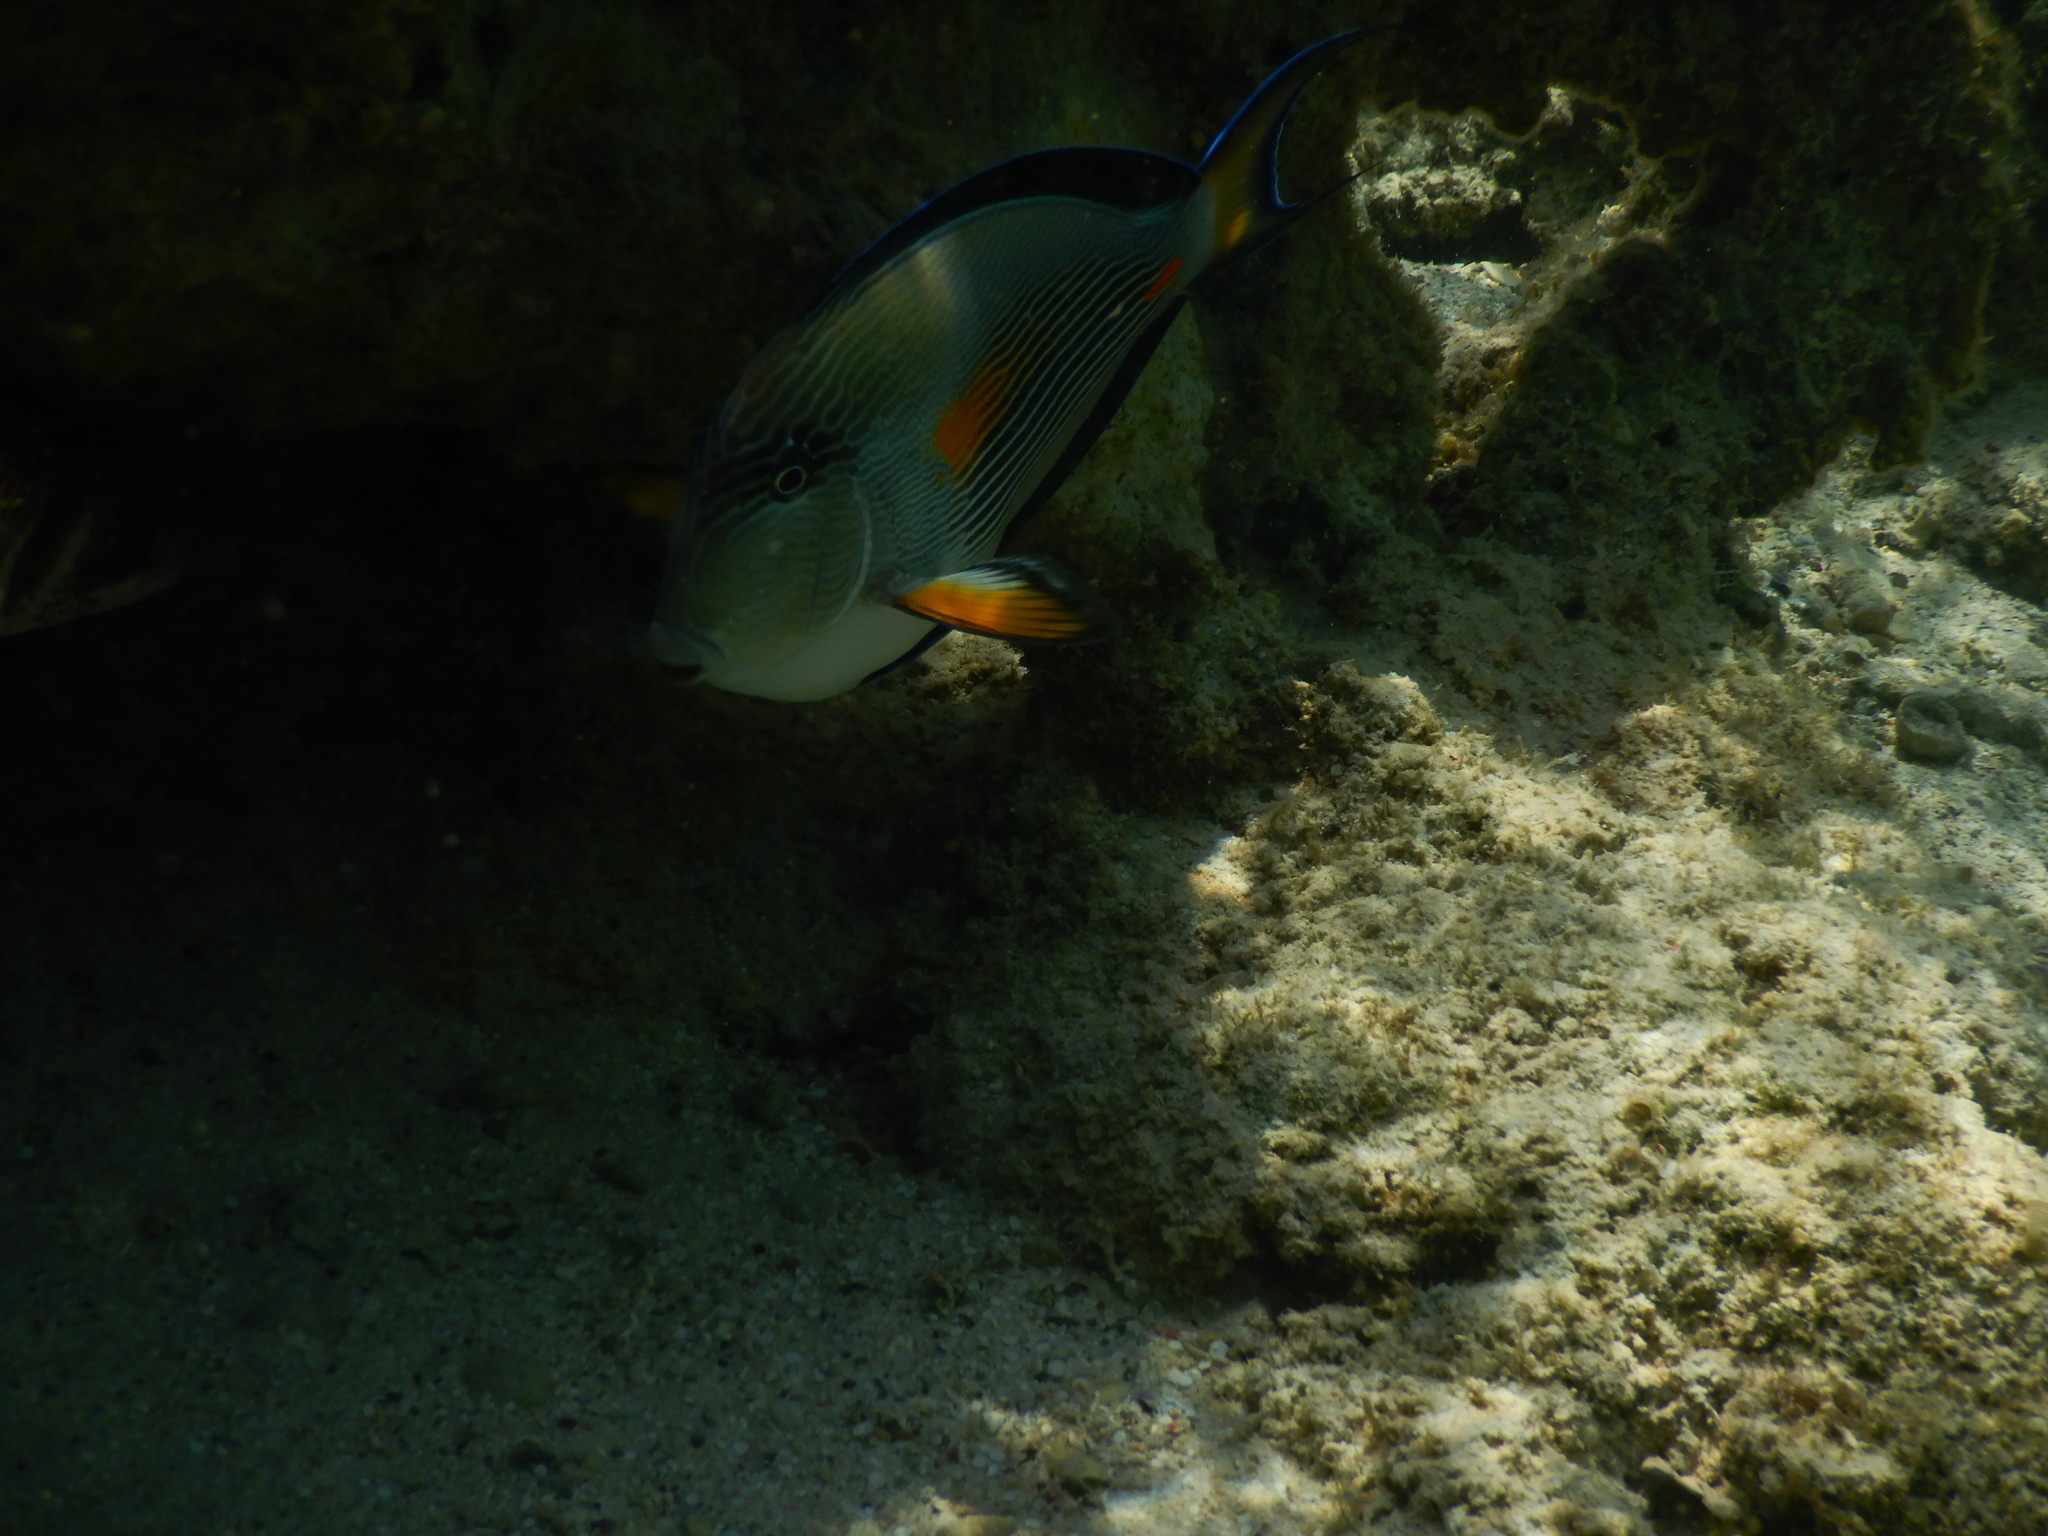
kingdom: Animalia
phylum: Chordata
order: Perciformes
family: Acanthuridae
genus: Acanthurus
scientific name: Acanthurus sohal
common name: Red sea surgeonfish
